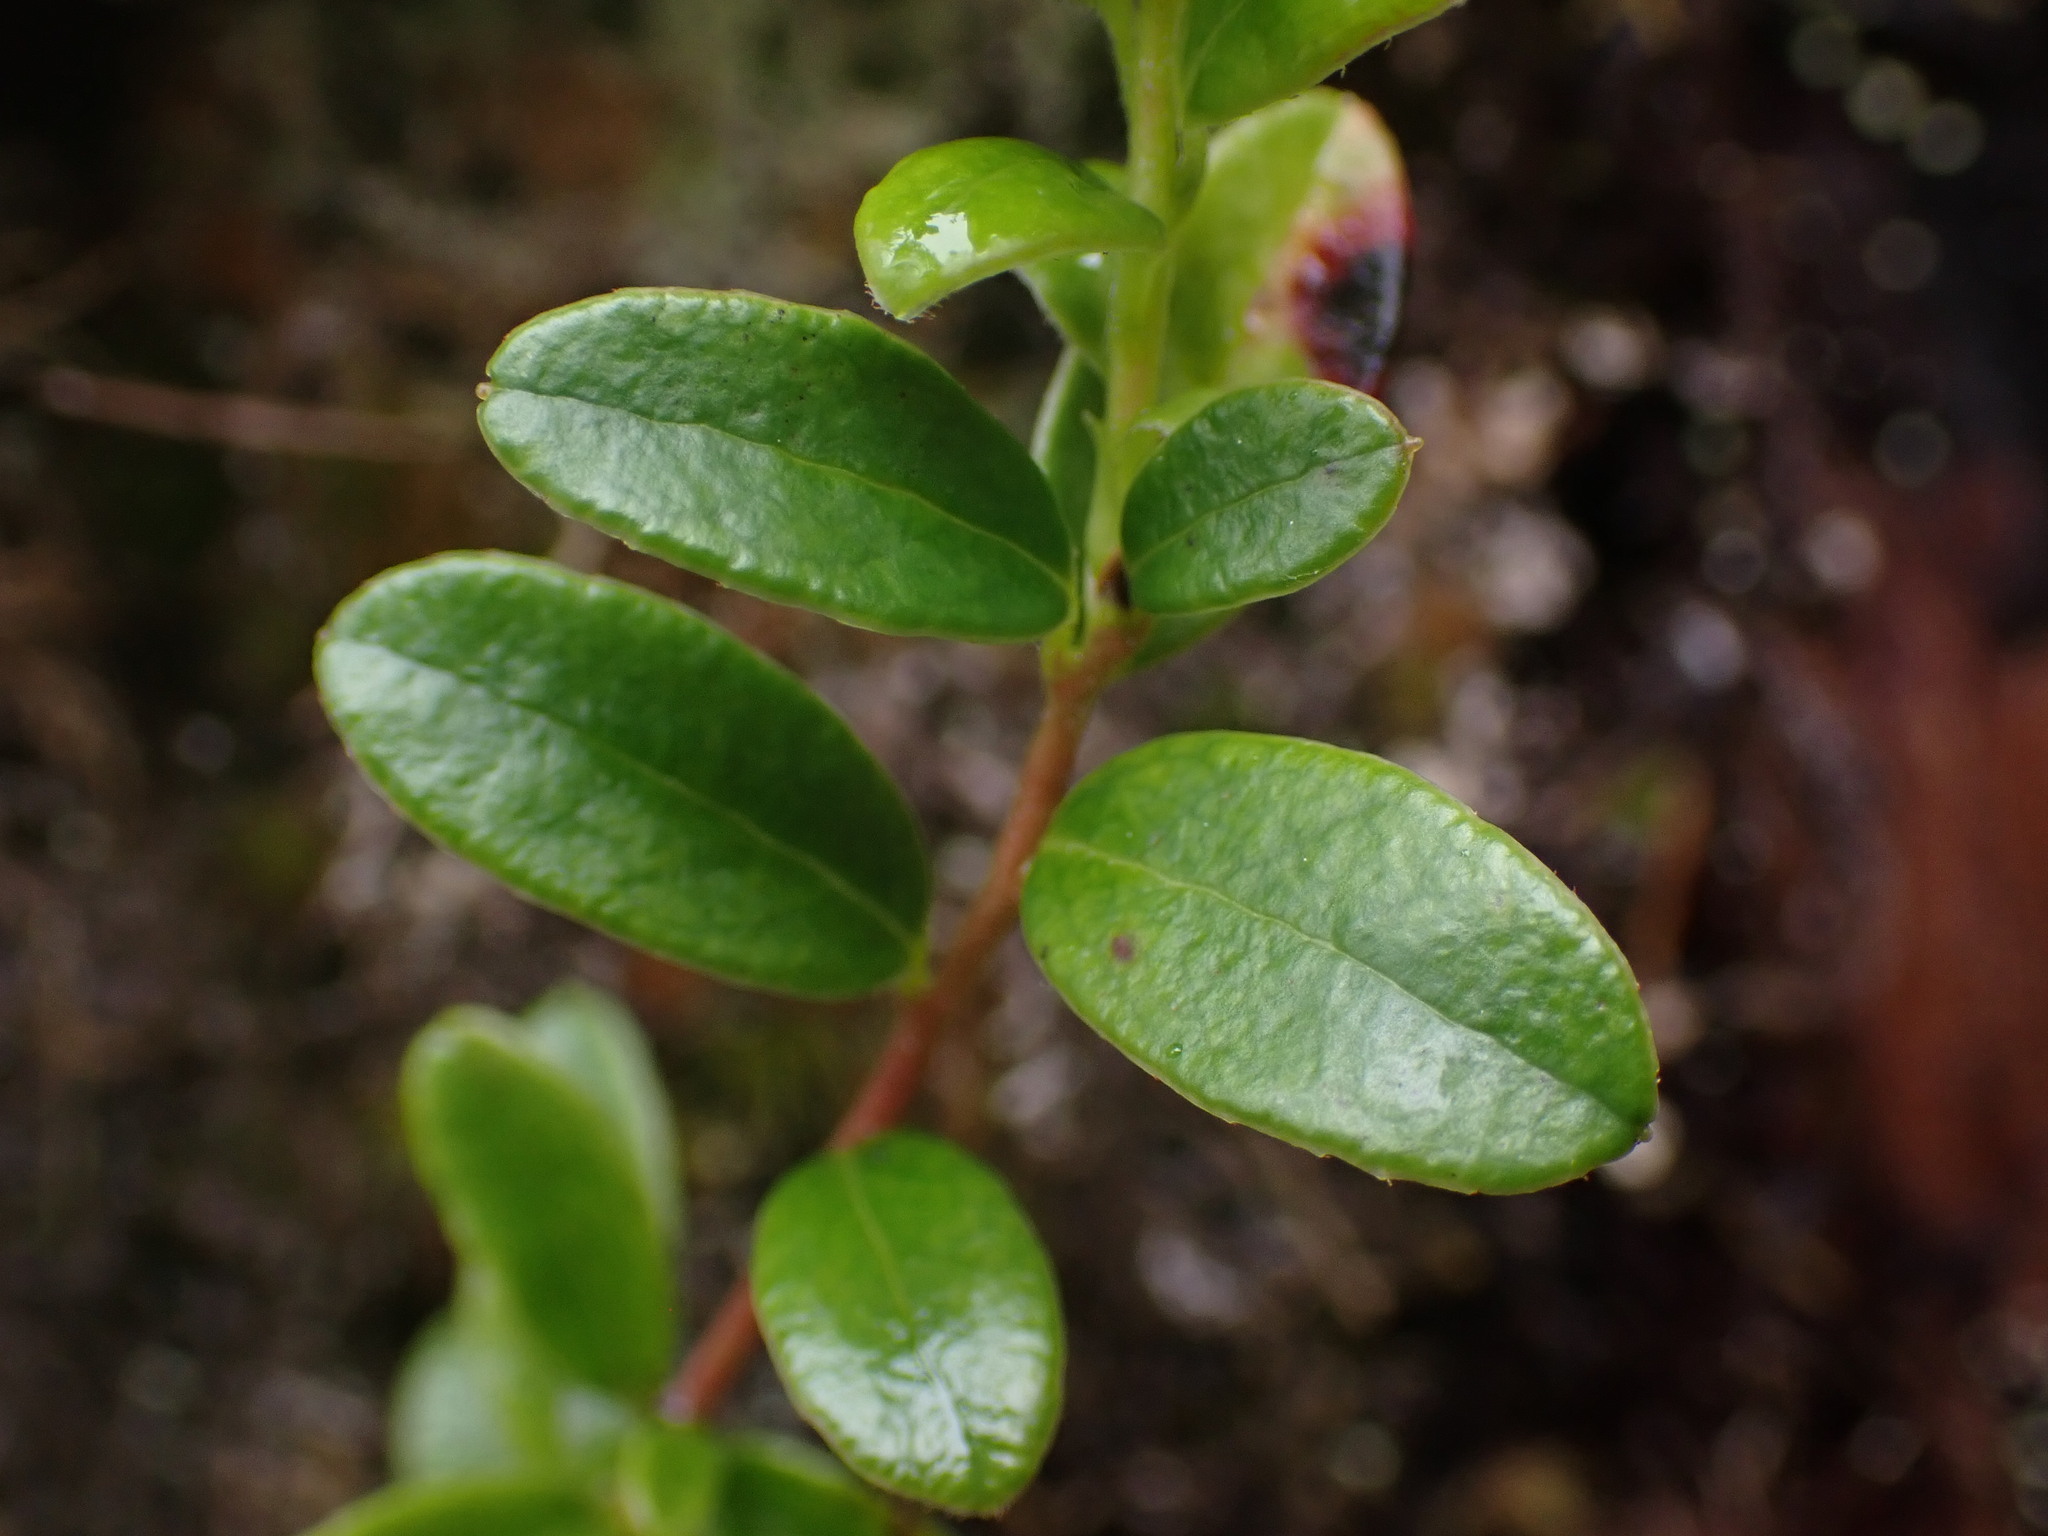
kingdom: Plantae
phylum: Tracheophyta
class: Magnoliopsida
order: Ericales
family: Ericaceae
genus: Vaccinium
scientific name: Vaccinium vitis-idaea
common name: Cowberry
